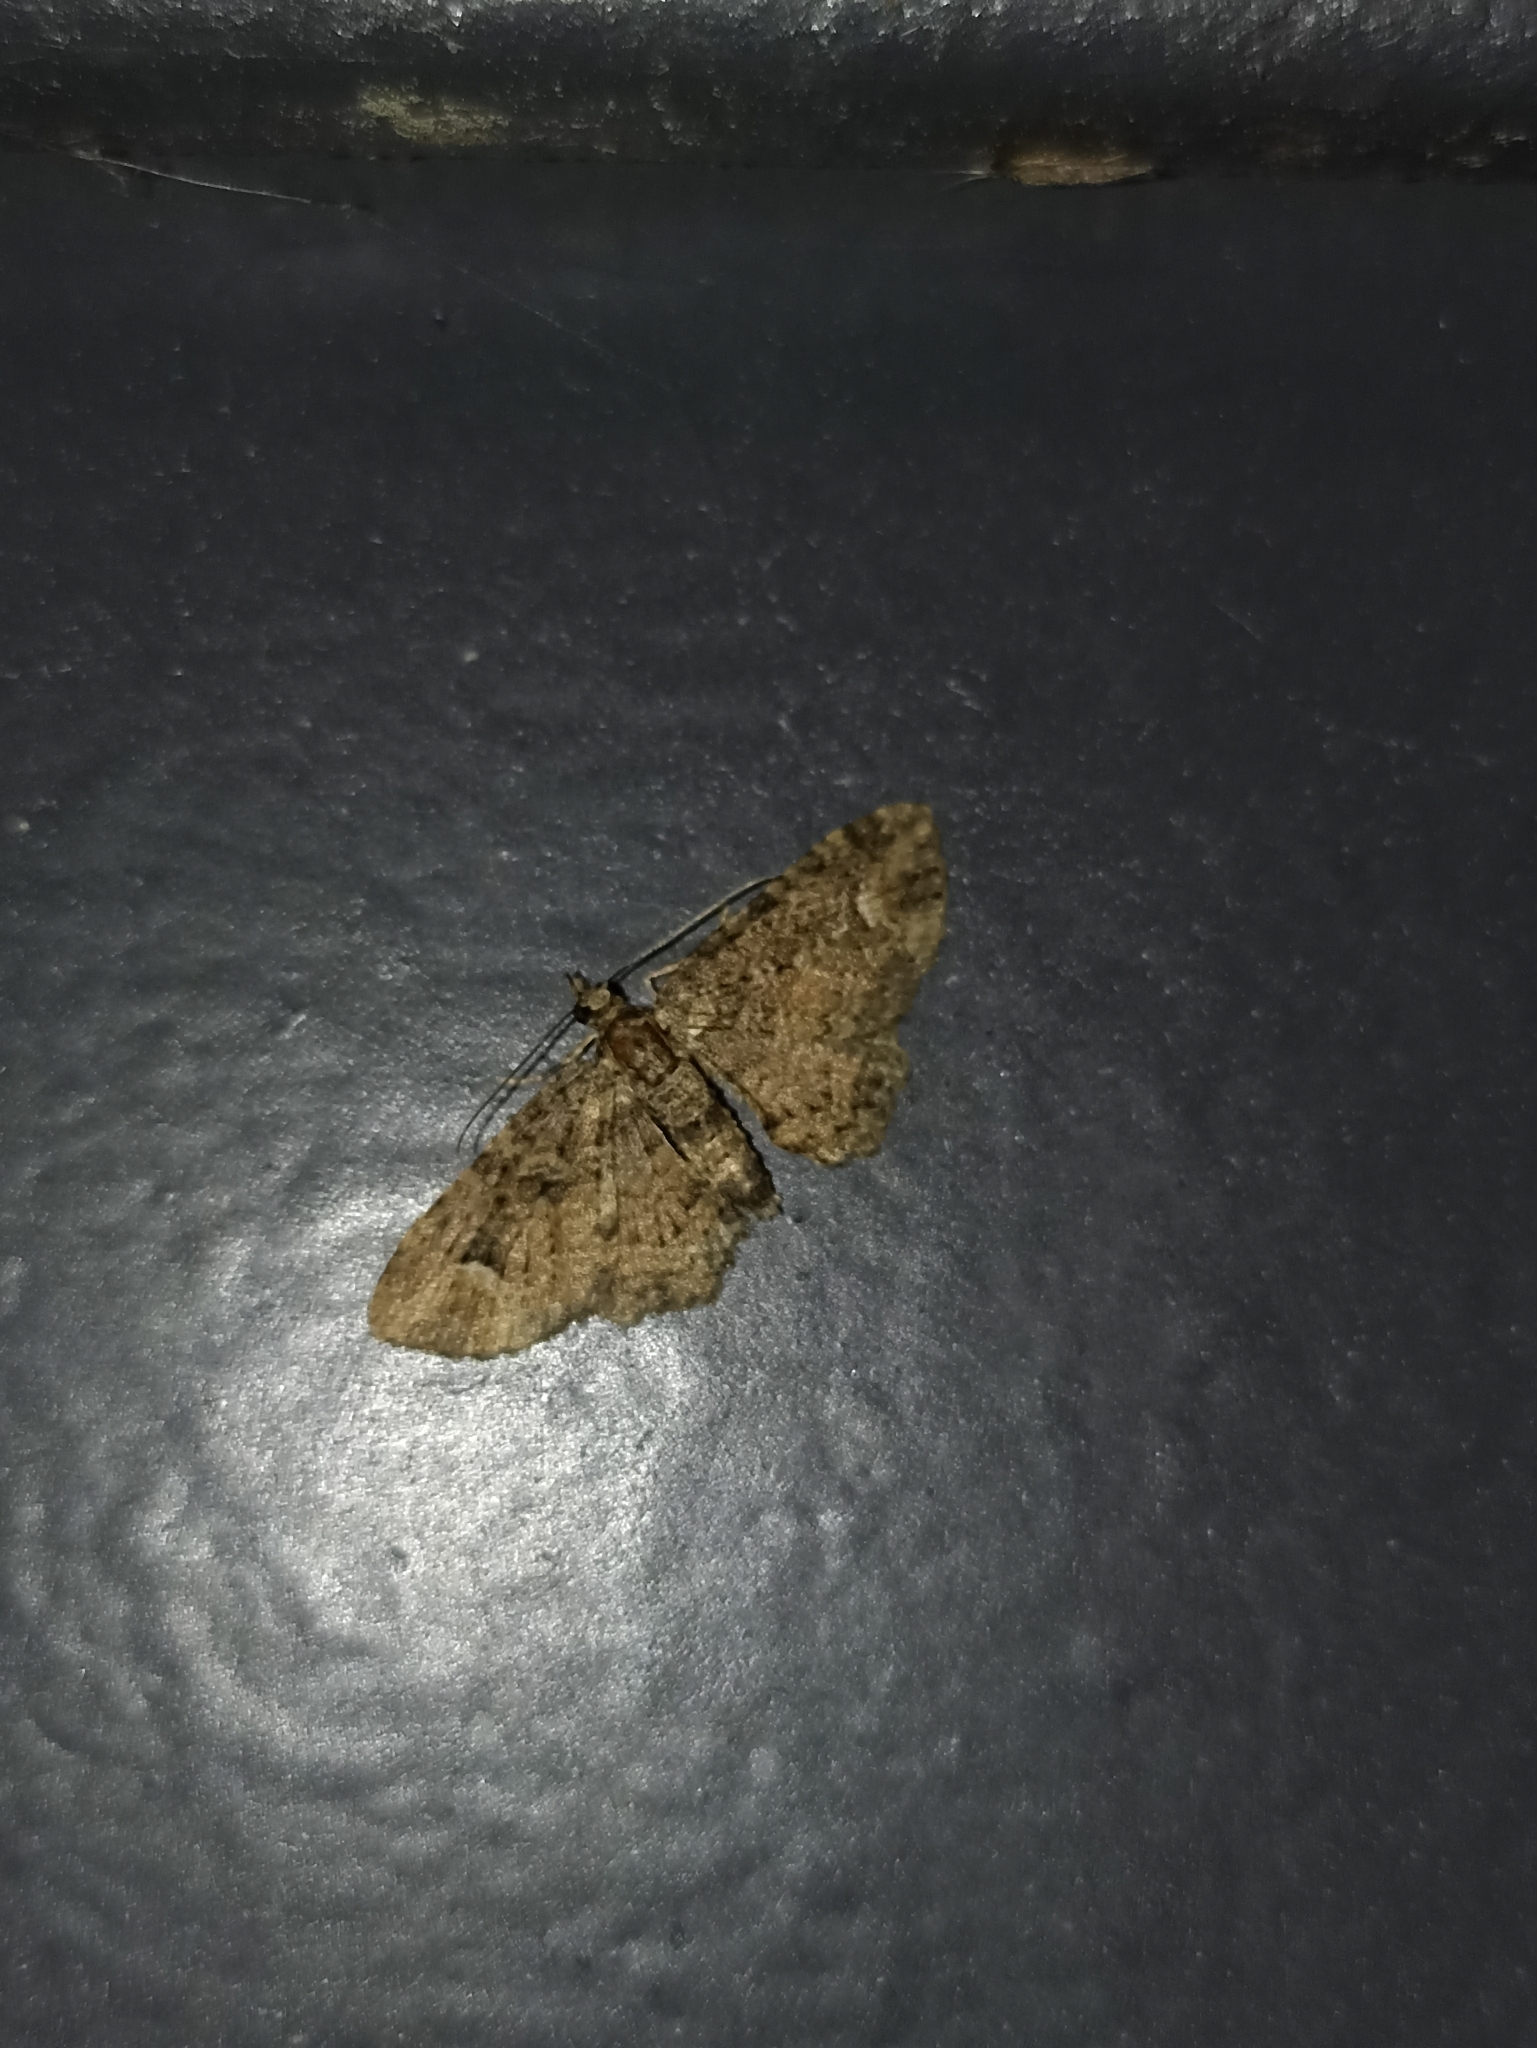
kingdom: Animalia
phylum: Arthropoda
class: Insecta
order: Lepidoptera
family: Geometridae
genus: Pasiphilodes
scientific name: Pasiphilodes testulata
